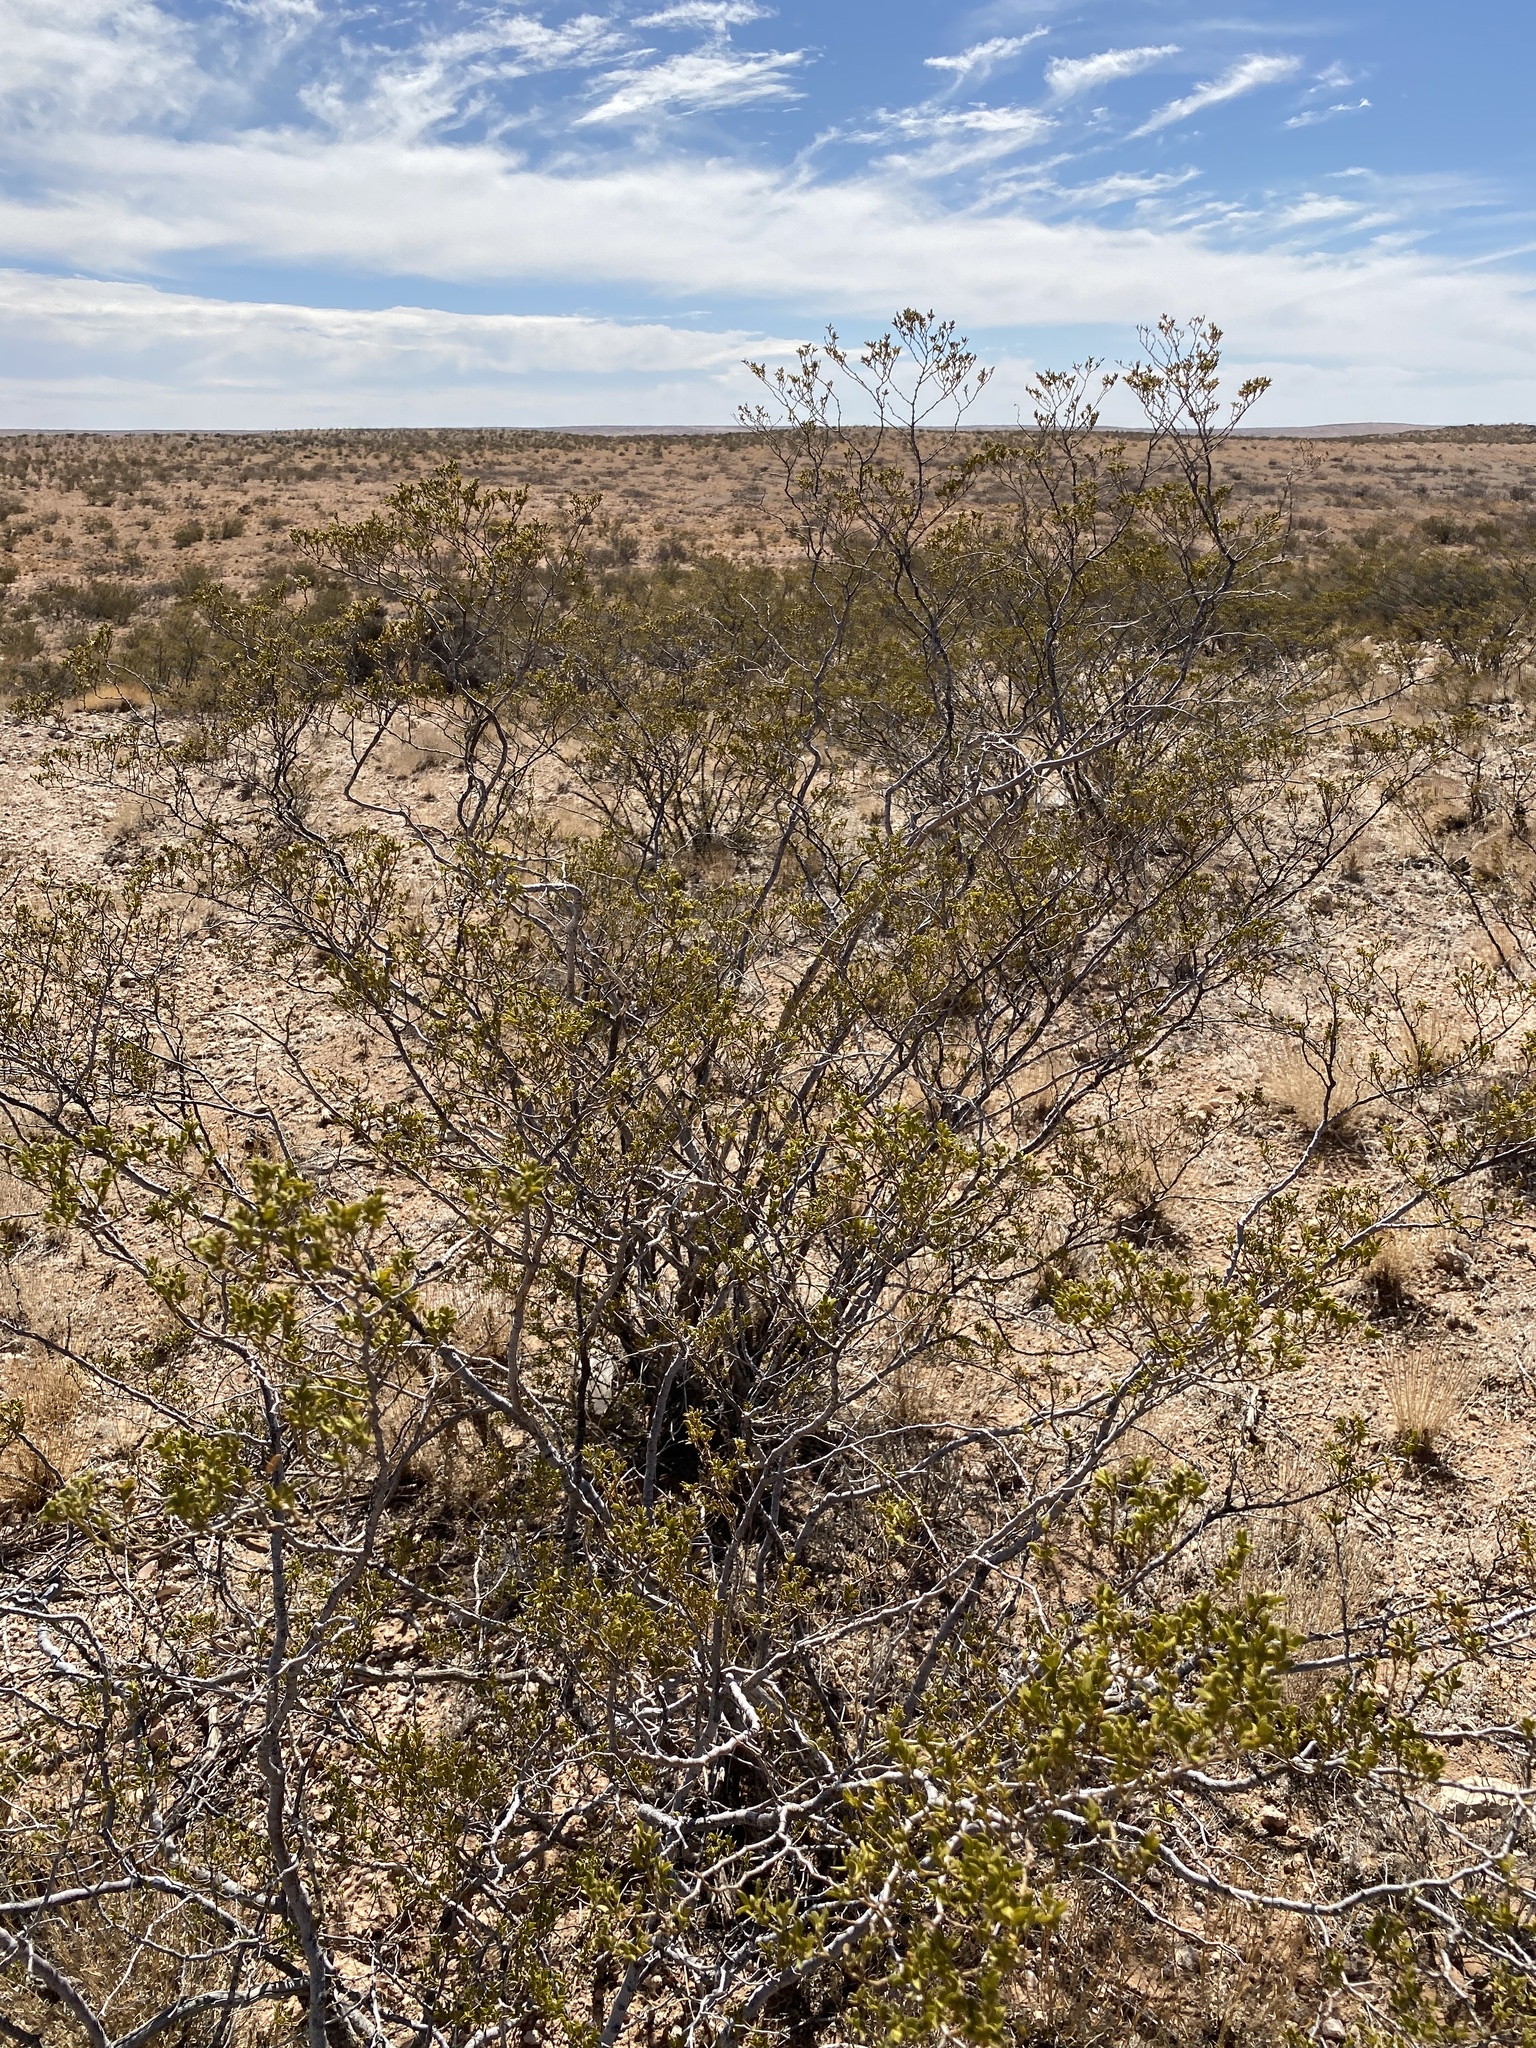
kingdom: Plantae
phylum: Tracheophyta
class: Magnoliopsida
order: Zygophyllales
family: Zygophyllaceae
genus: Larrea
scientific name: Larrea tridentata
